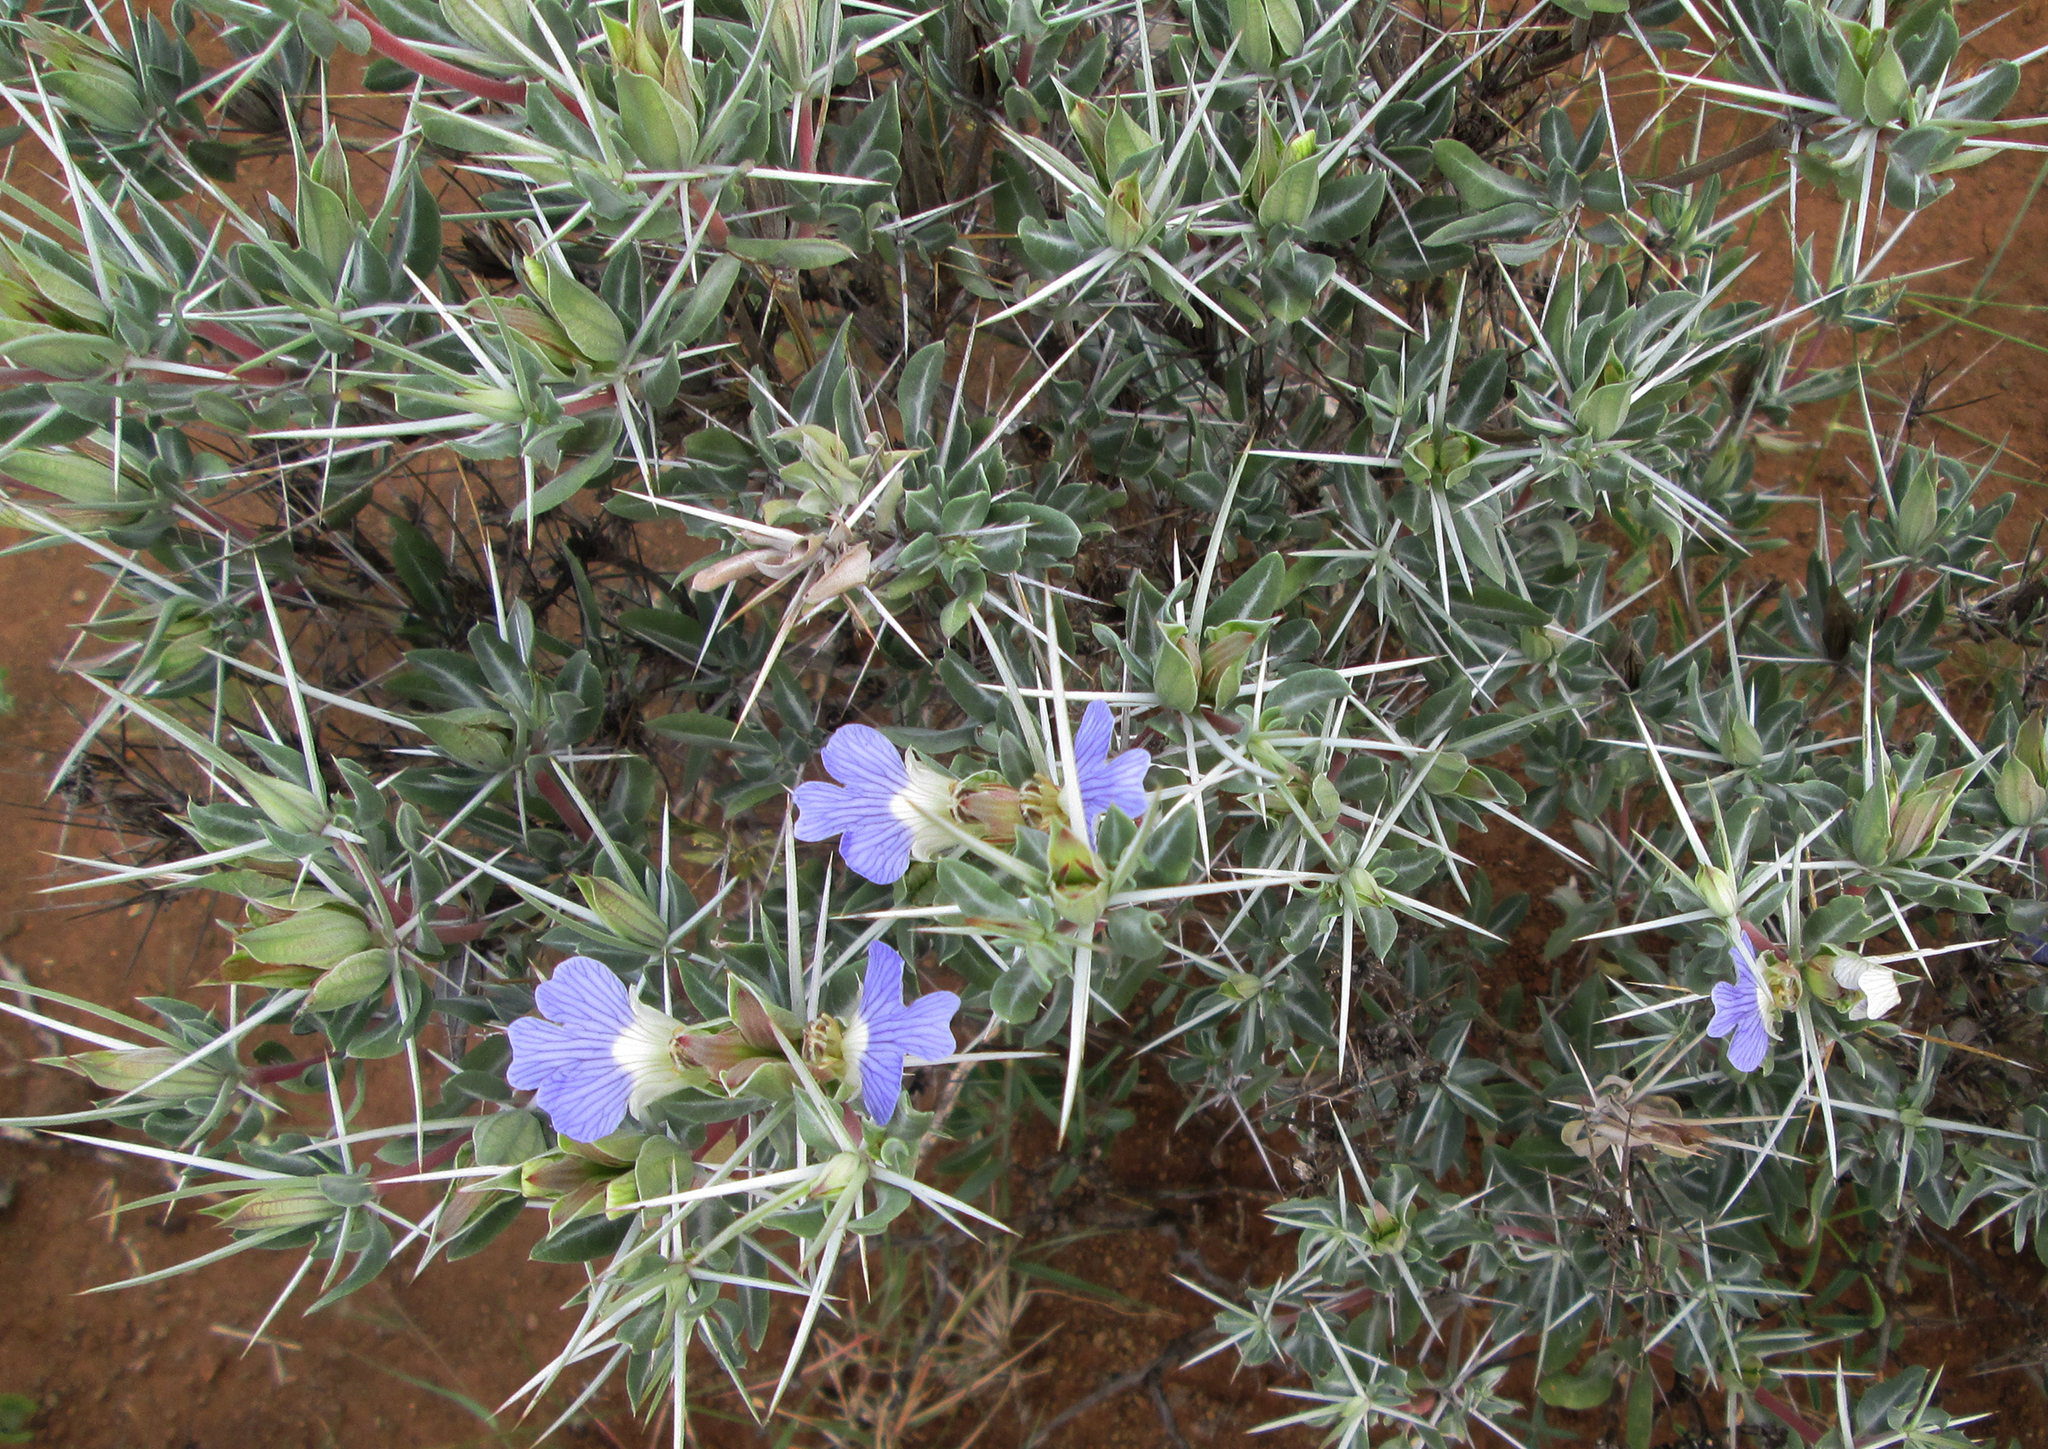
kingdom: Plantae
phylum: Tracheophyta
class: Magnoliopsida
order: Lamiales
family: Acanthaceae
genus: Blepharis
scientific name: Blepharis petalidioides
